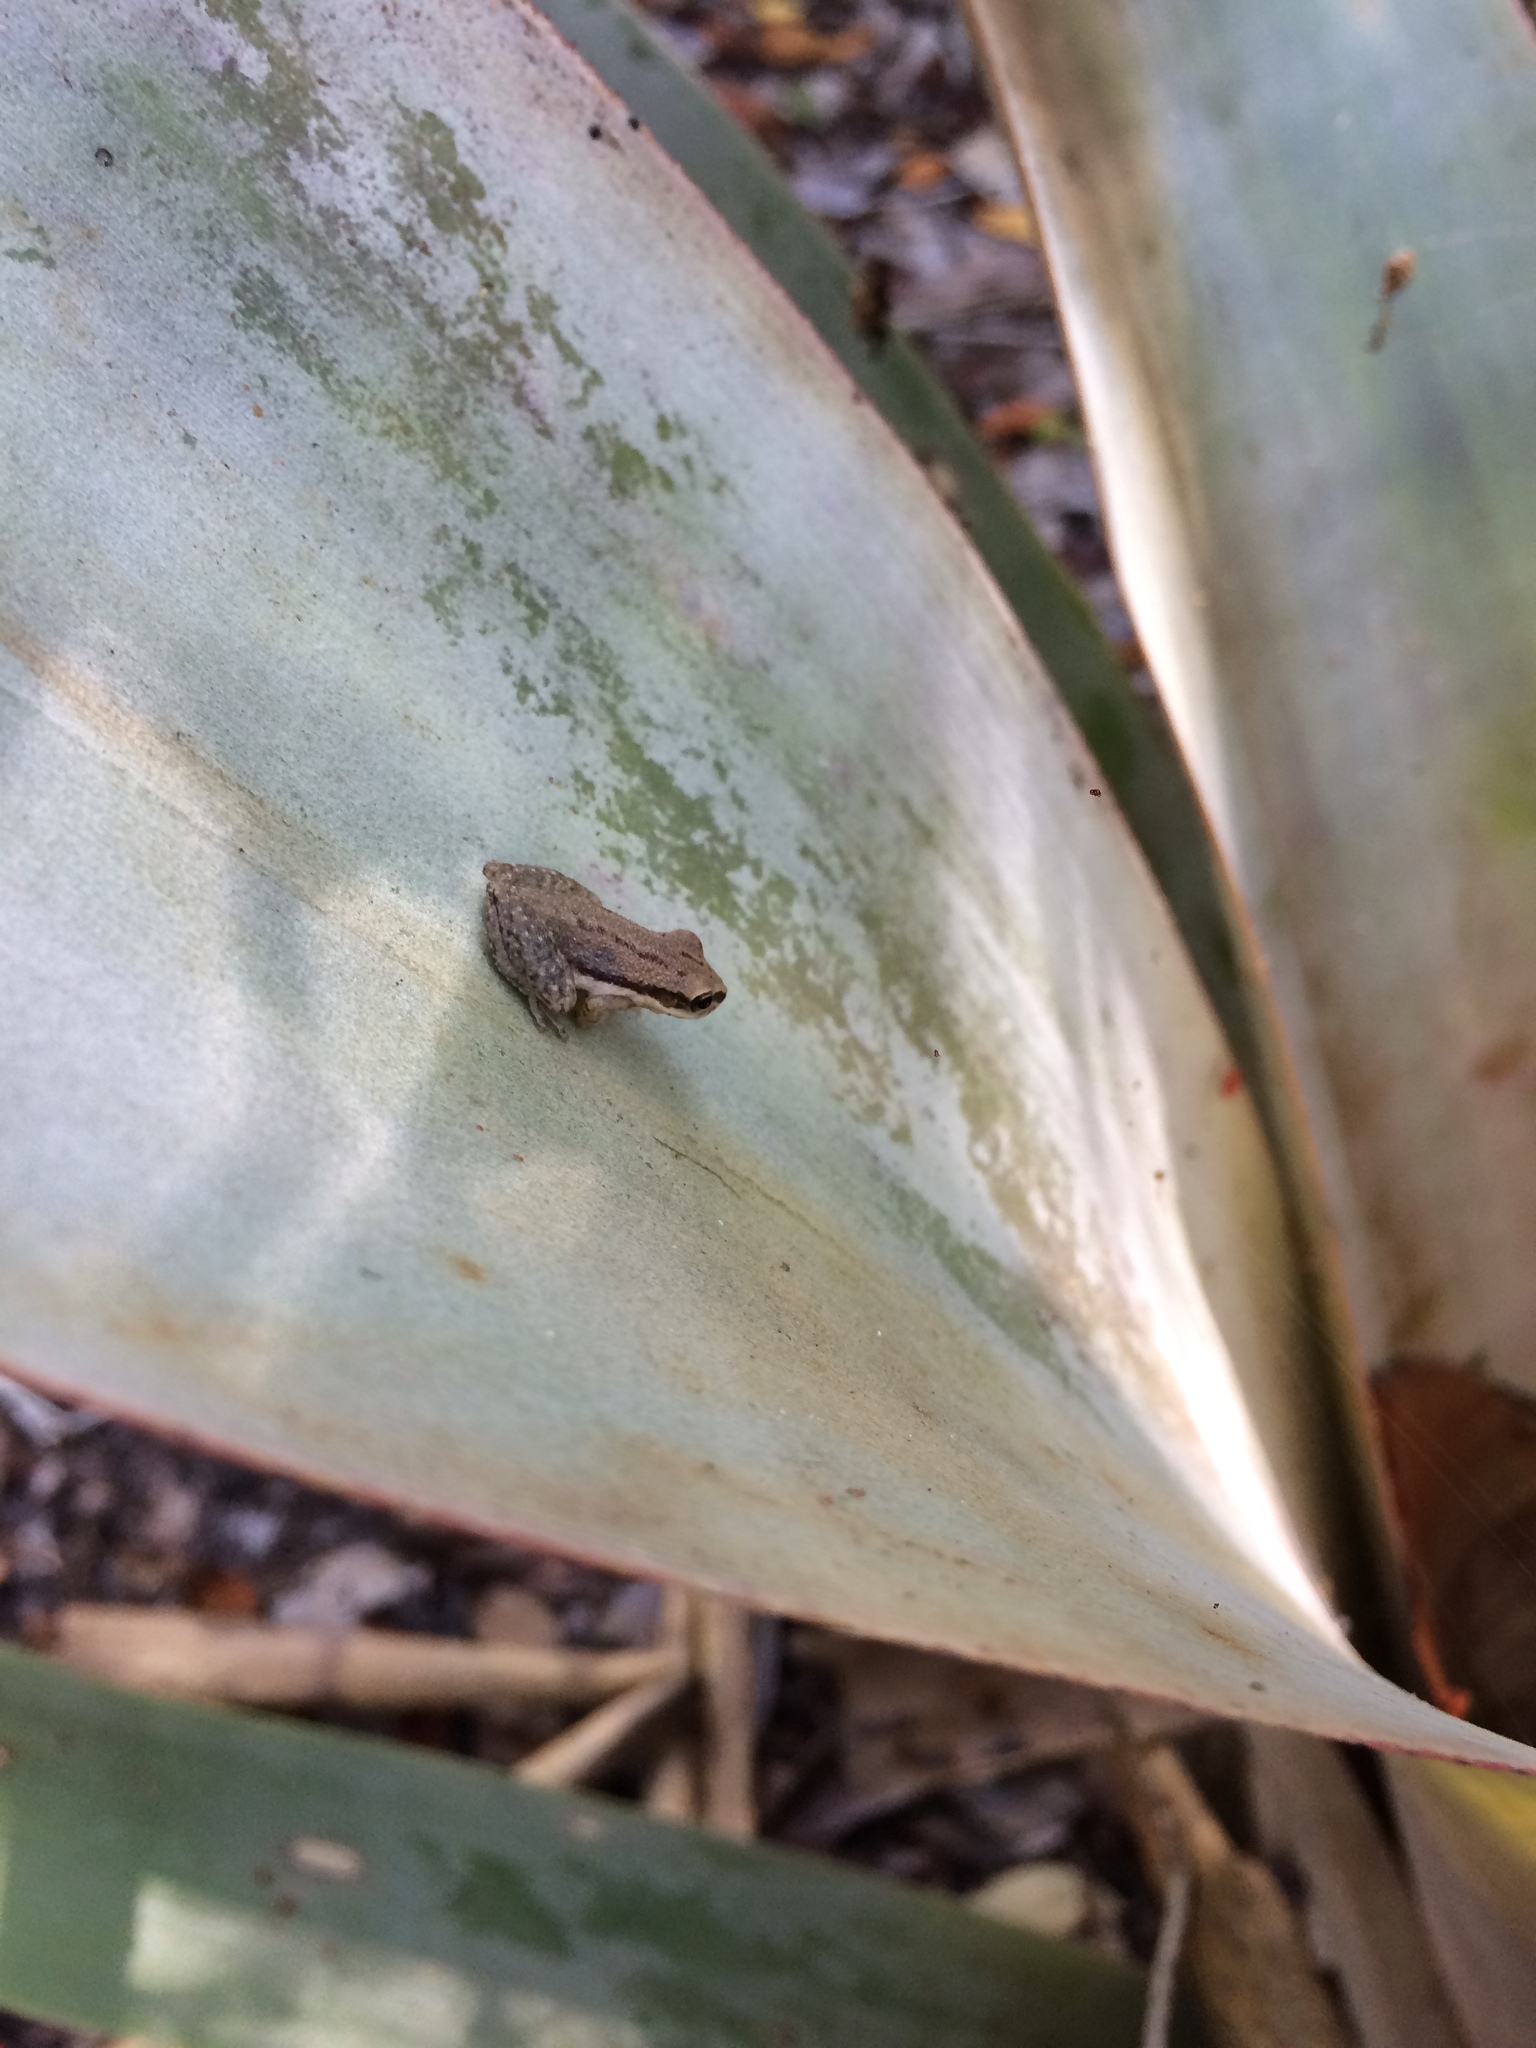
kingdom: Animalia
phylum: Chordata
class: Amphibia
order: Anura
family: Hylidae
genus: Ololygon
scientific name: Ololygon melanodactyla
